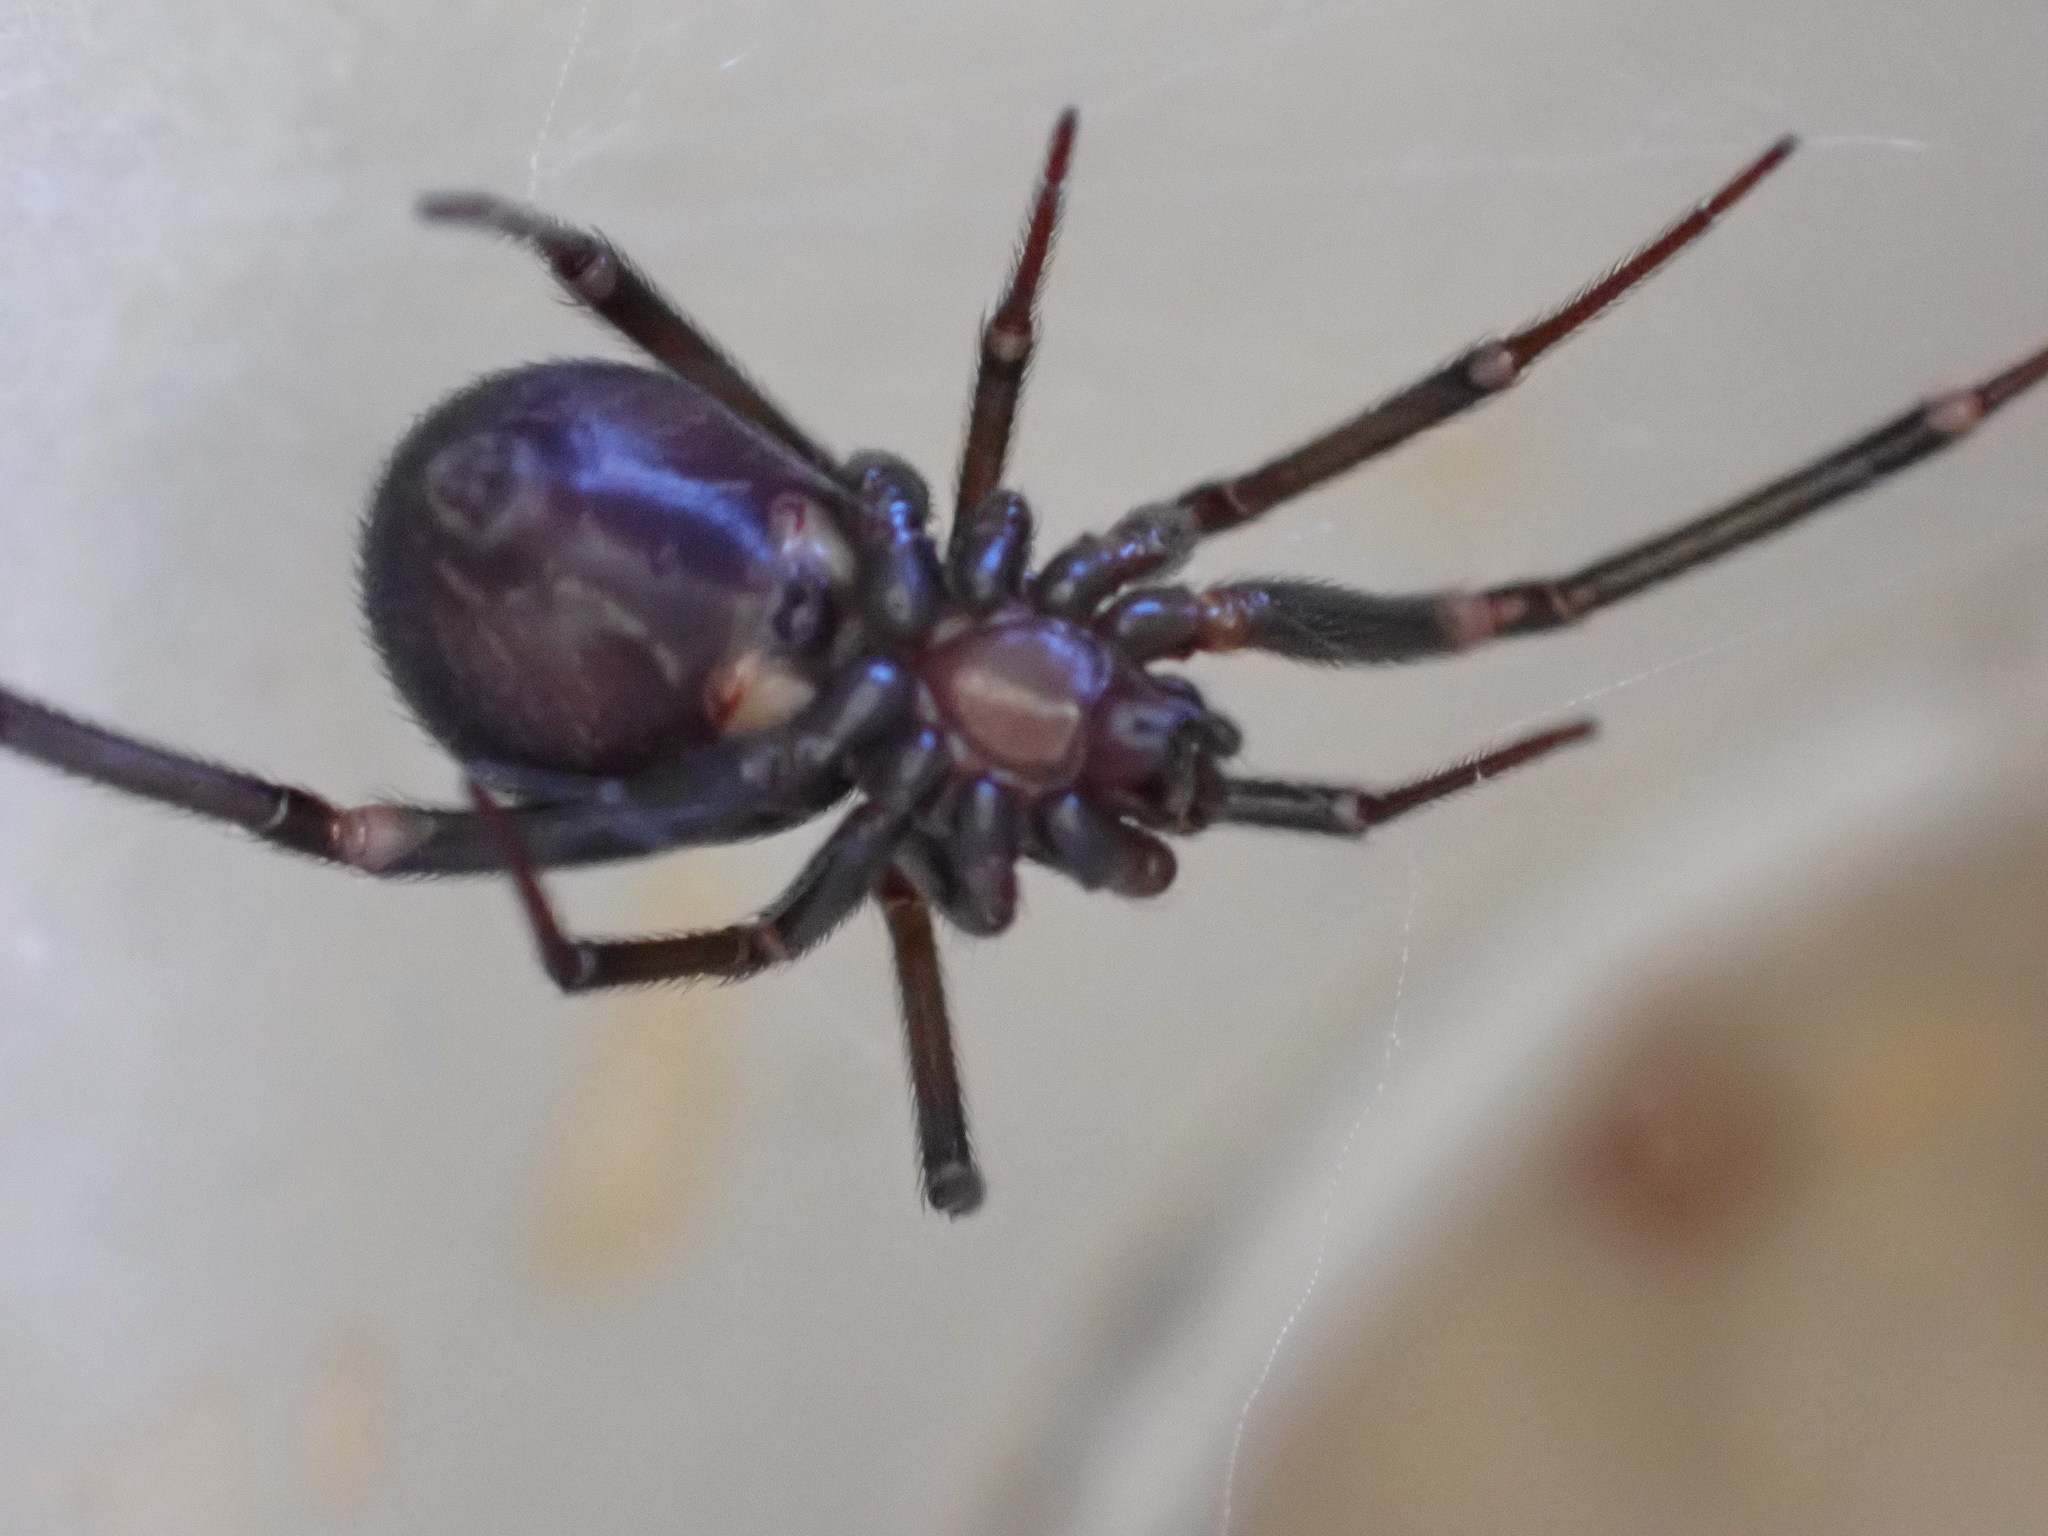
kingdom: Animalia
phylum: Arthropoda
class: Arachnida
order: Araneae
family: Theridiidae
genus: Steatoda
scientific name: Steatoda grossa
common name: False black widow
